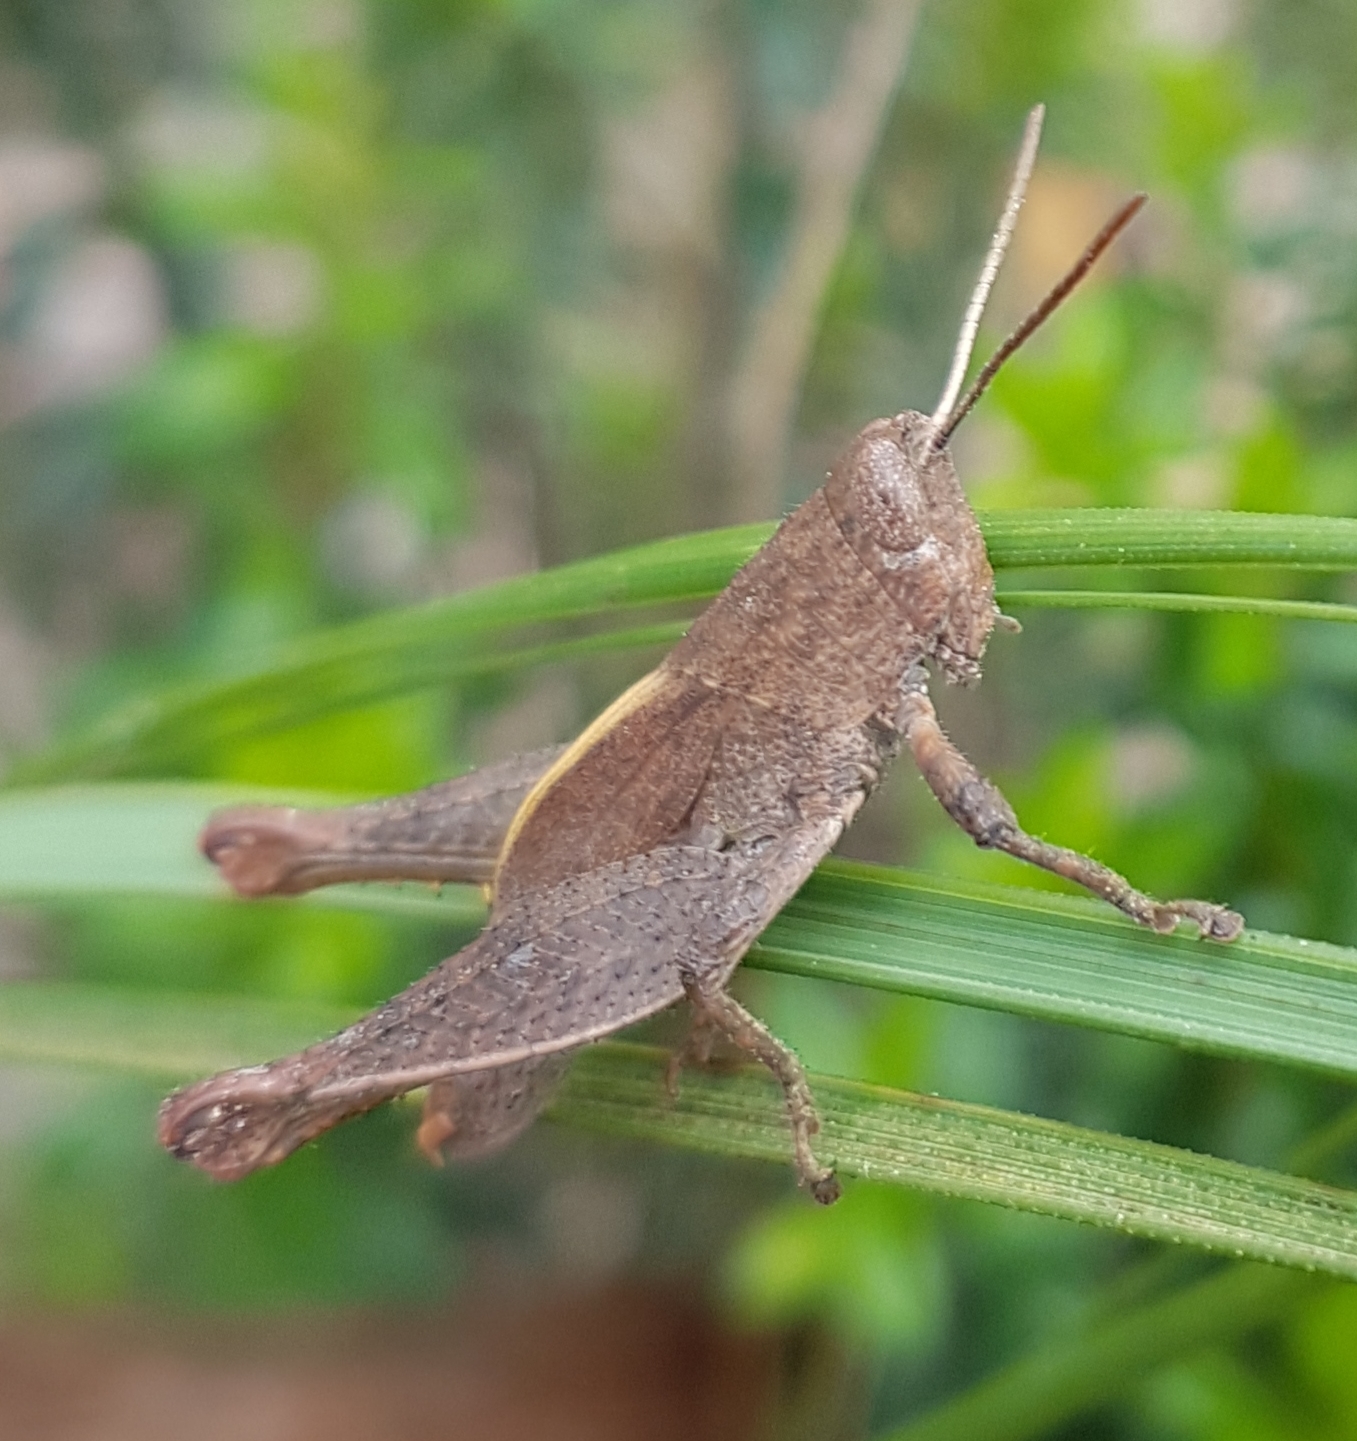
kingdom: Animalia
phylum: Arthropoda
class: Insecta
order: Orthoptera
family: Acrididae
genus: Rhitzala
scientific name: Rhitzala modesta
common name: Short-winged heath grasshopper
